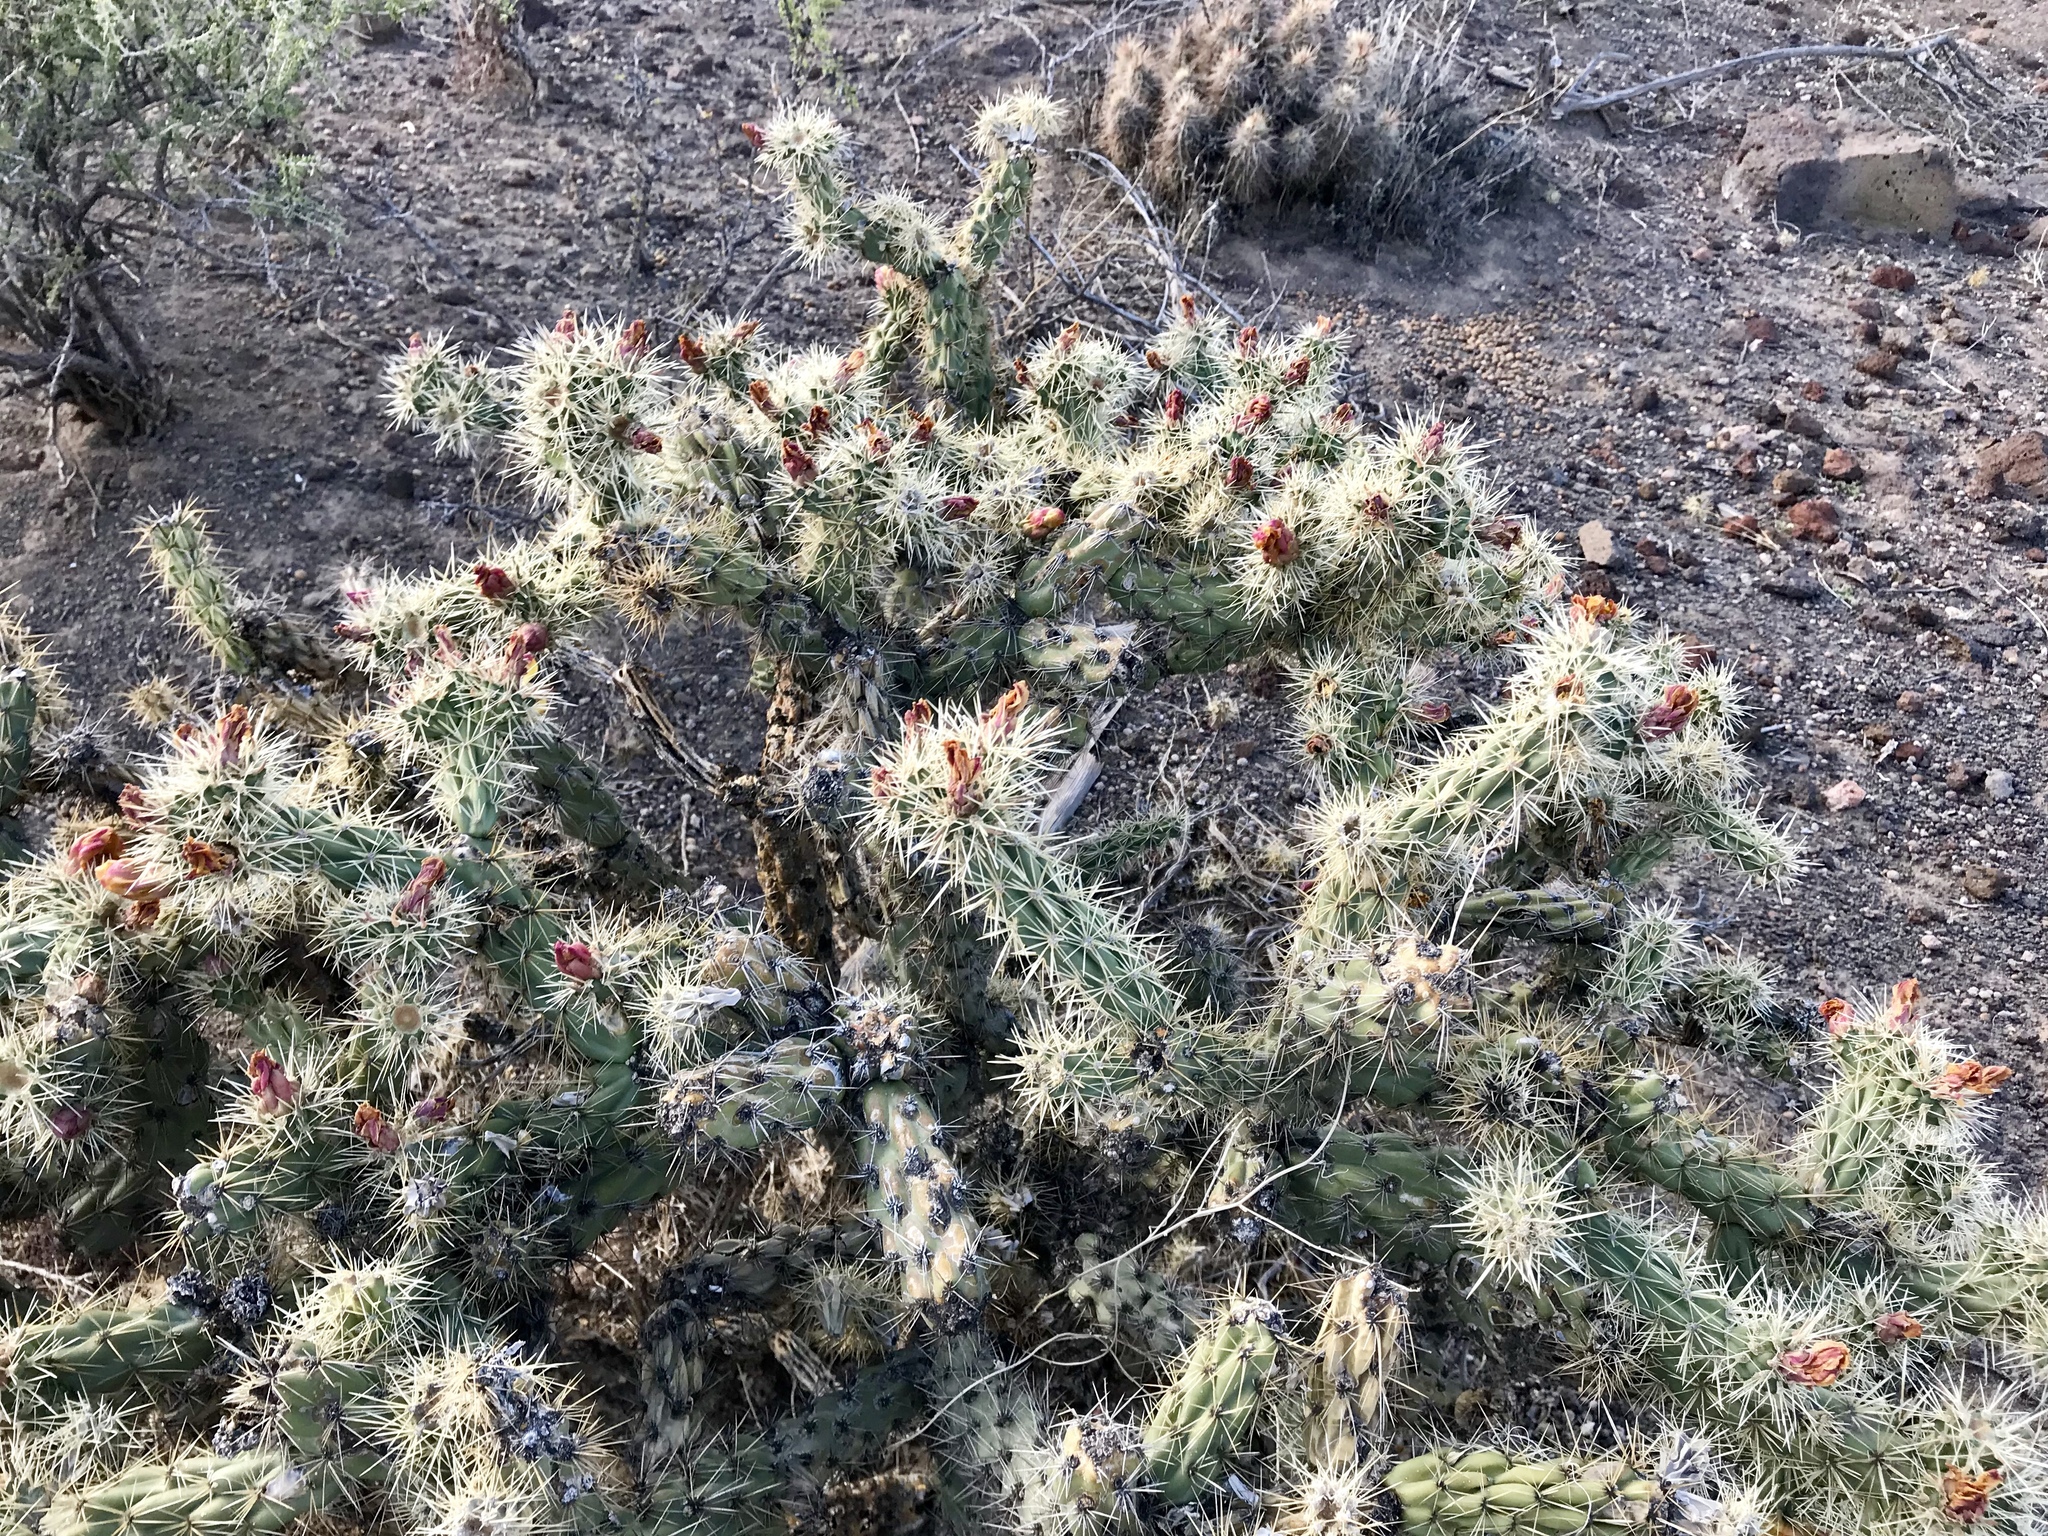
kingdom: Plantae
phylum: Tracheophyta
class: Magnoliopsida
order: Caryophyllales
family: Cactaceae
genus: Cylindropuntia
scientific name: Cylindropuntia acanthocarpa
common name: Buckhorn cholla
